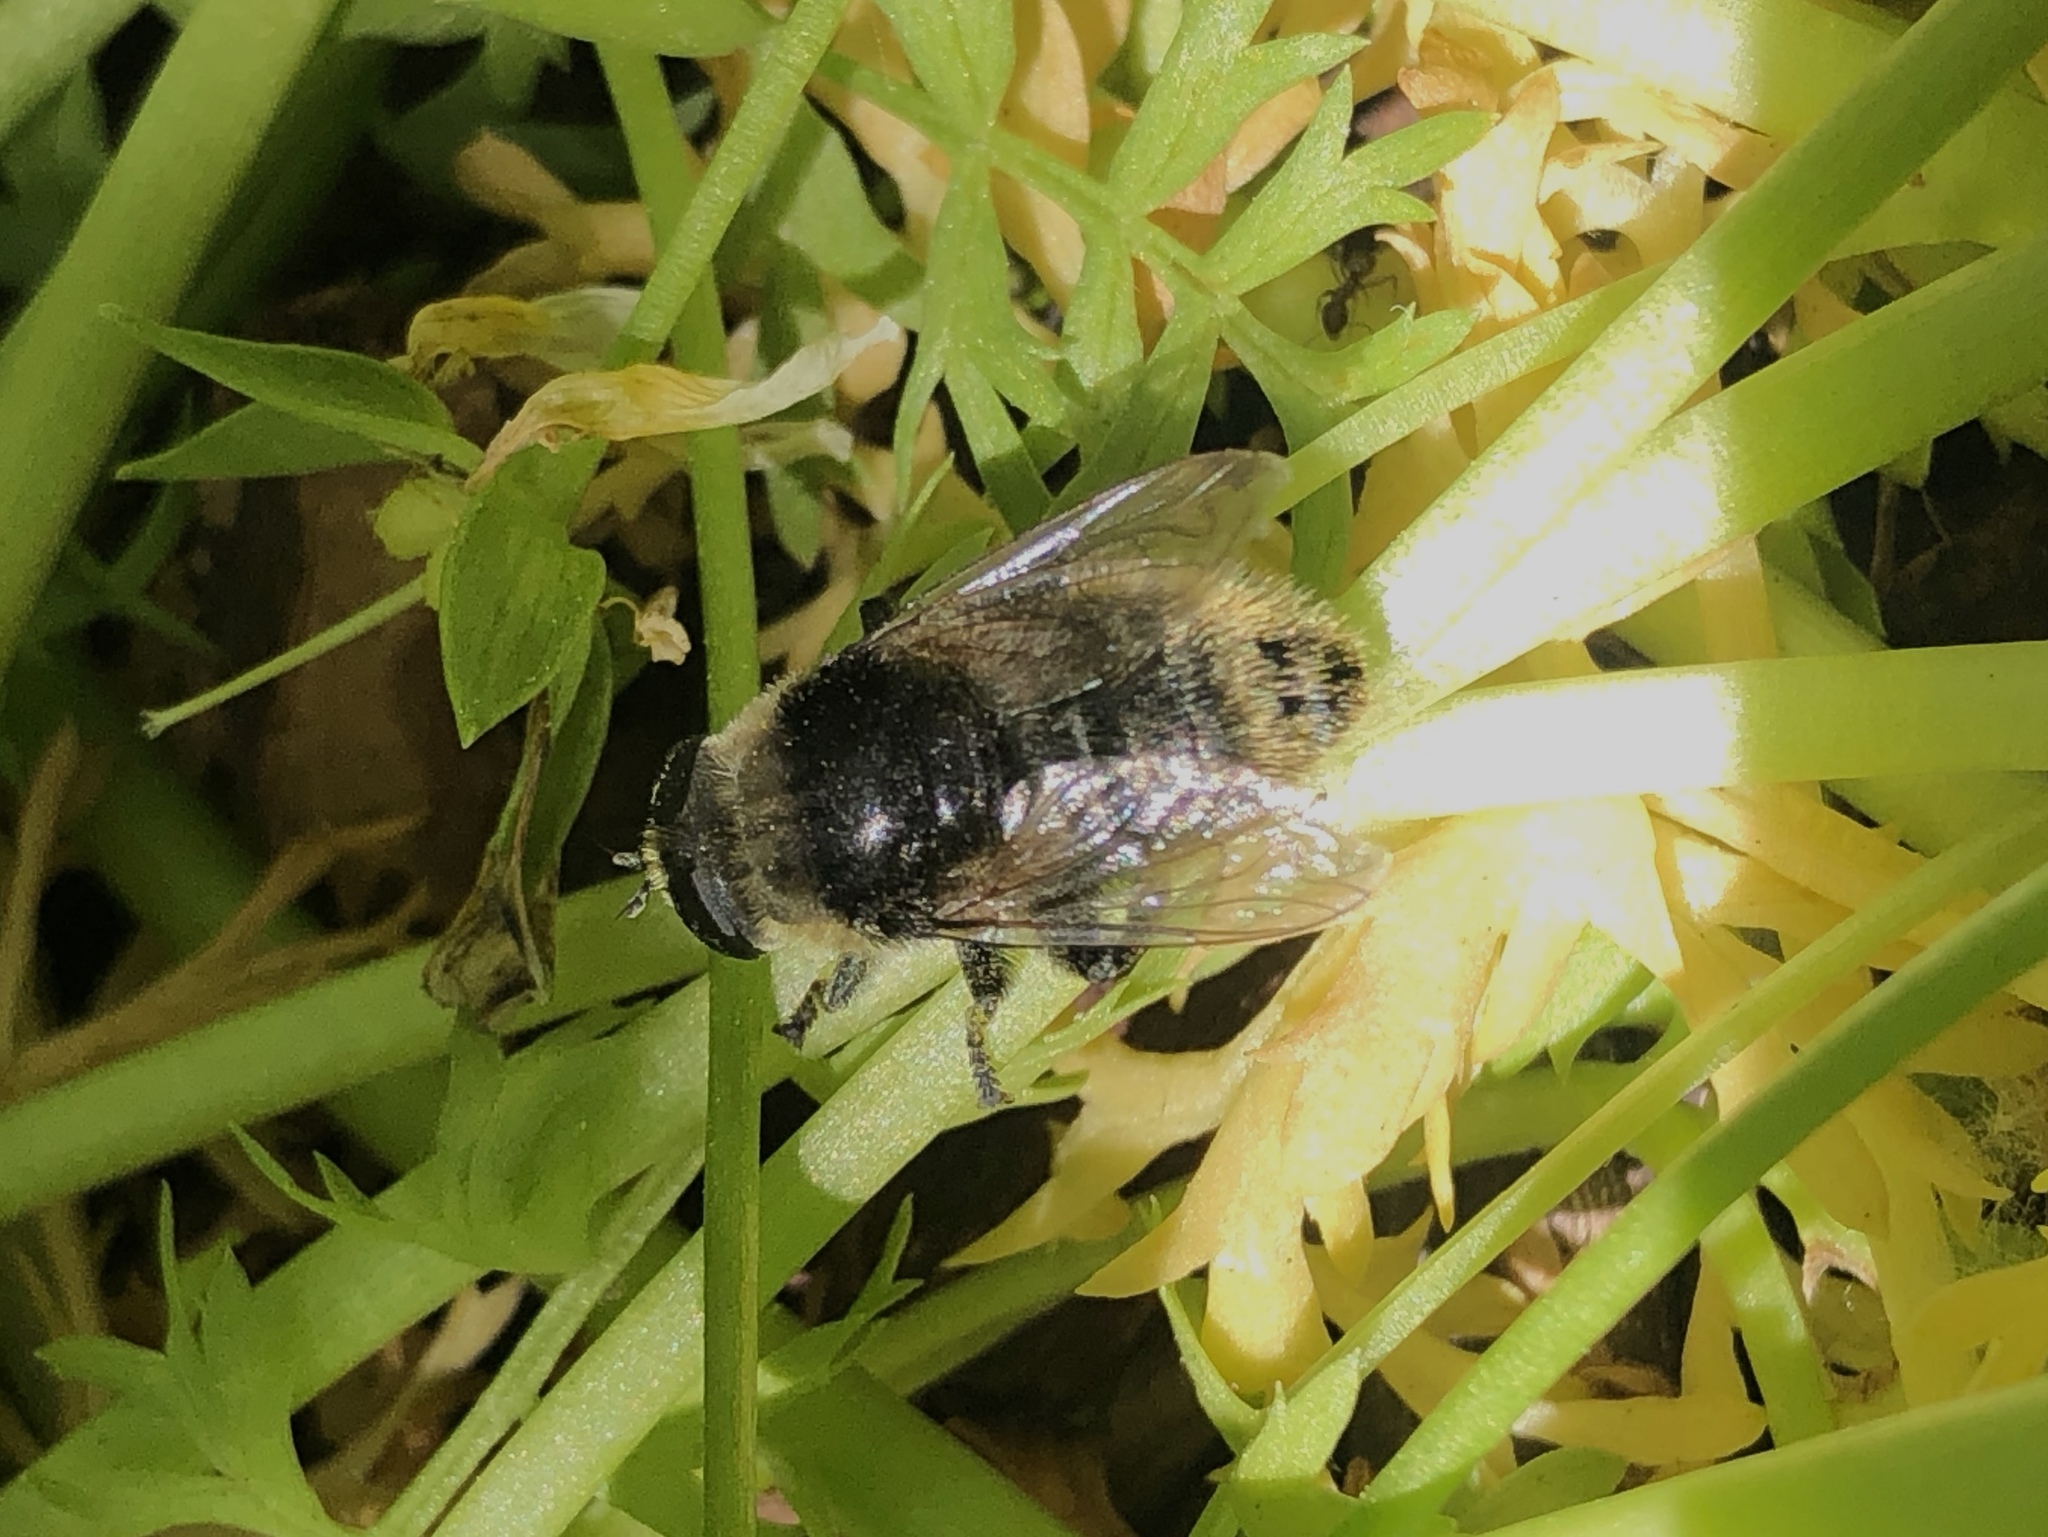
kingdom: Animalia
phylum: Arthropoda
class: Insecta
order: Diptera
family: Syrphidae
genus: Merodon
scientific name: Merodon equestris
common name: Greater bulb-fly
